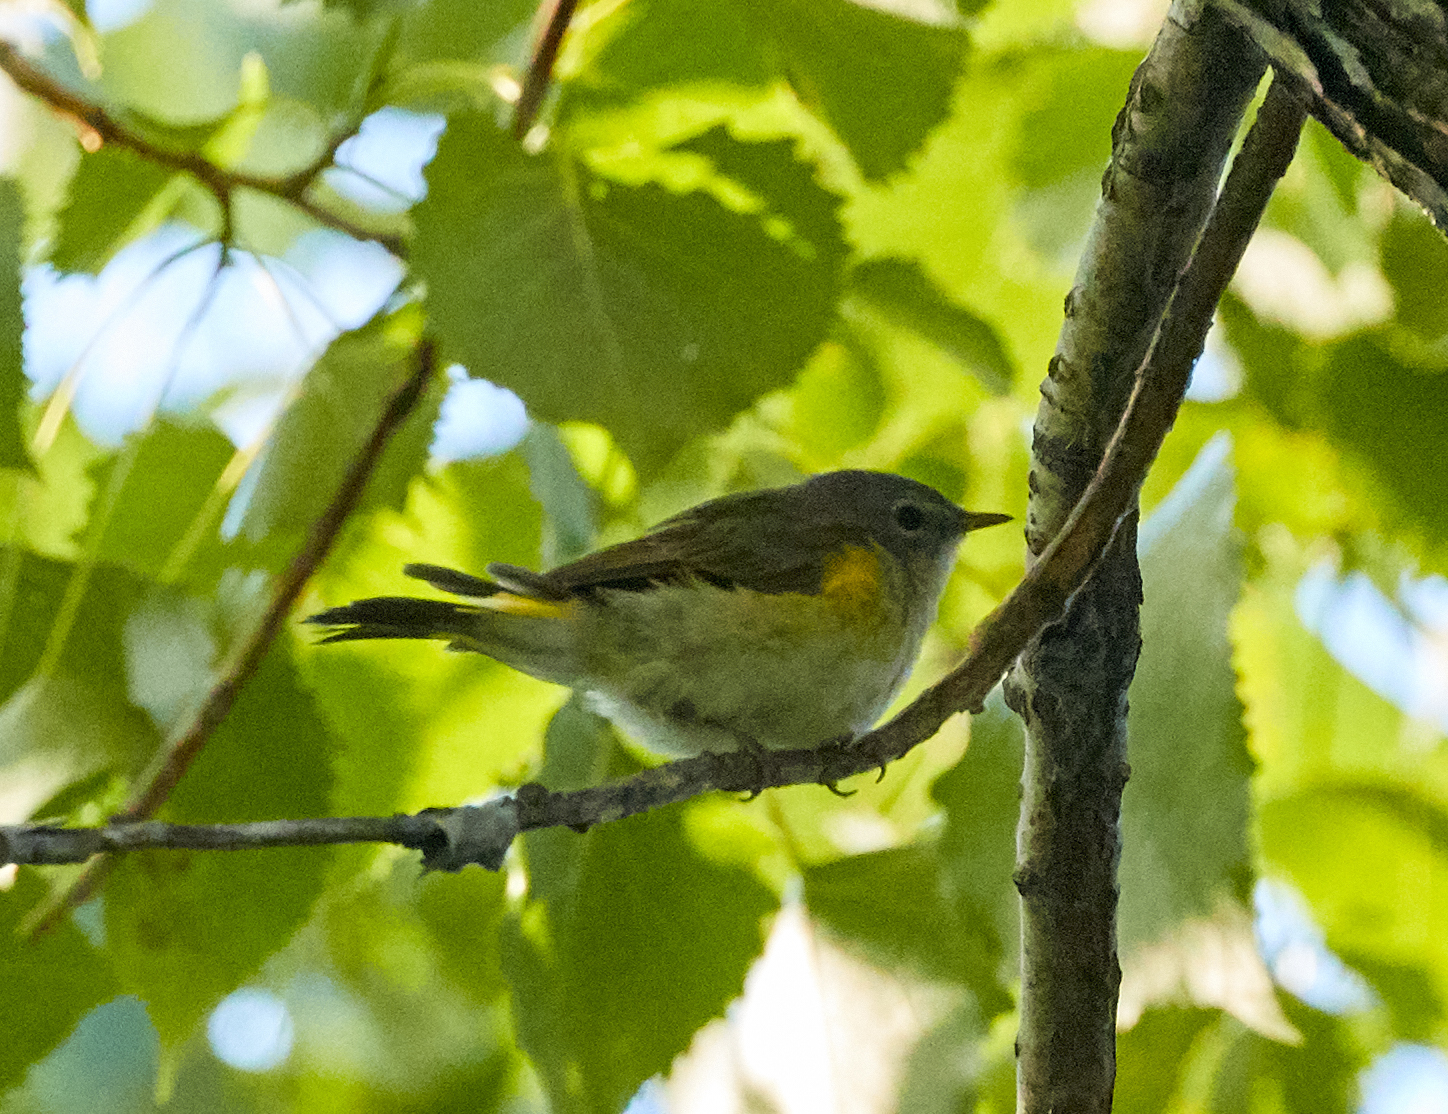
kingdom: Animalia
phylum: Chordata
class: Aves
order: Passeriformes
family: Parulidae
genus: Setophaga
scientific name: Setophaga ruticilla
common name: American redstart
